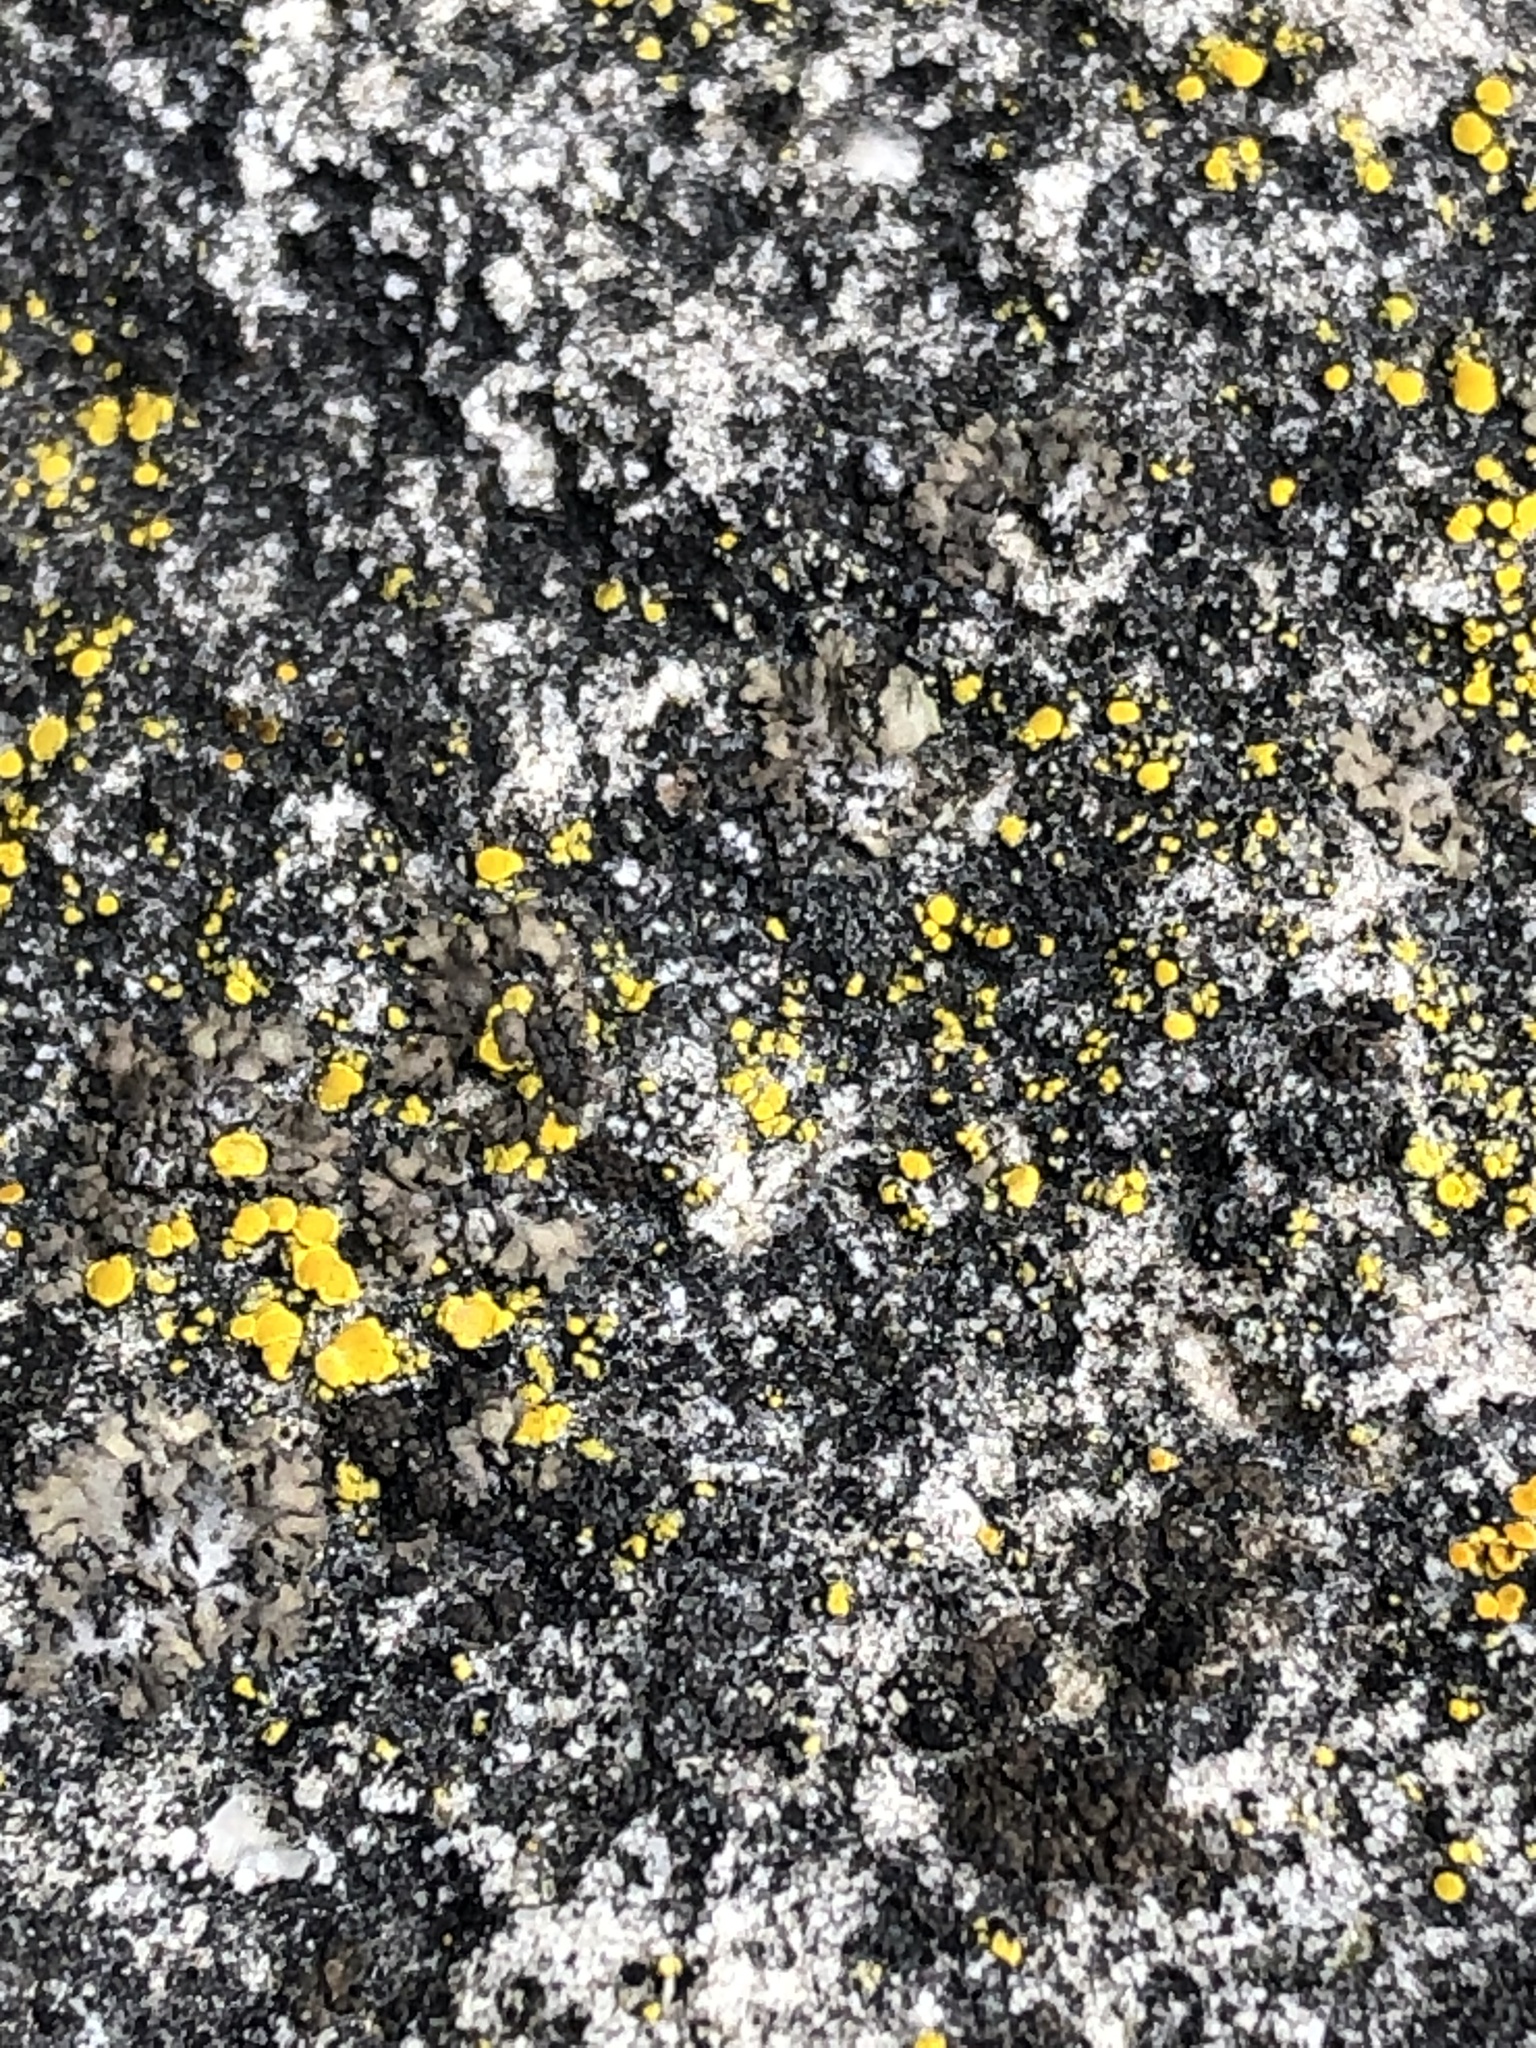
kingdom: Fungi
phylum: Ascomycota
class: Candelariomycetes
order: Candelariales
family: Candelariaceae
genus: Candelariella
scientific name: Candelariella vitellina
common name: Common goldspeck
